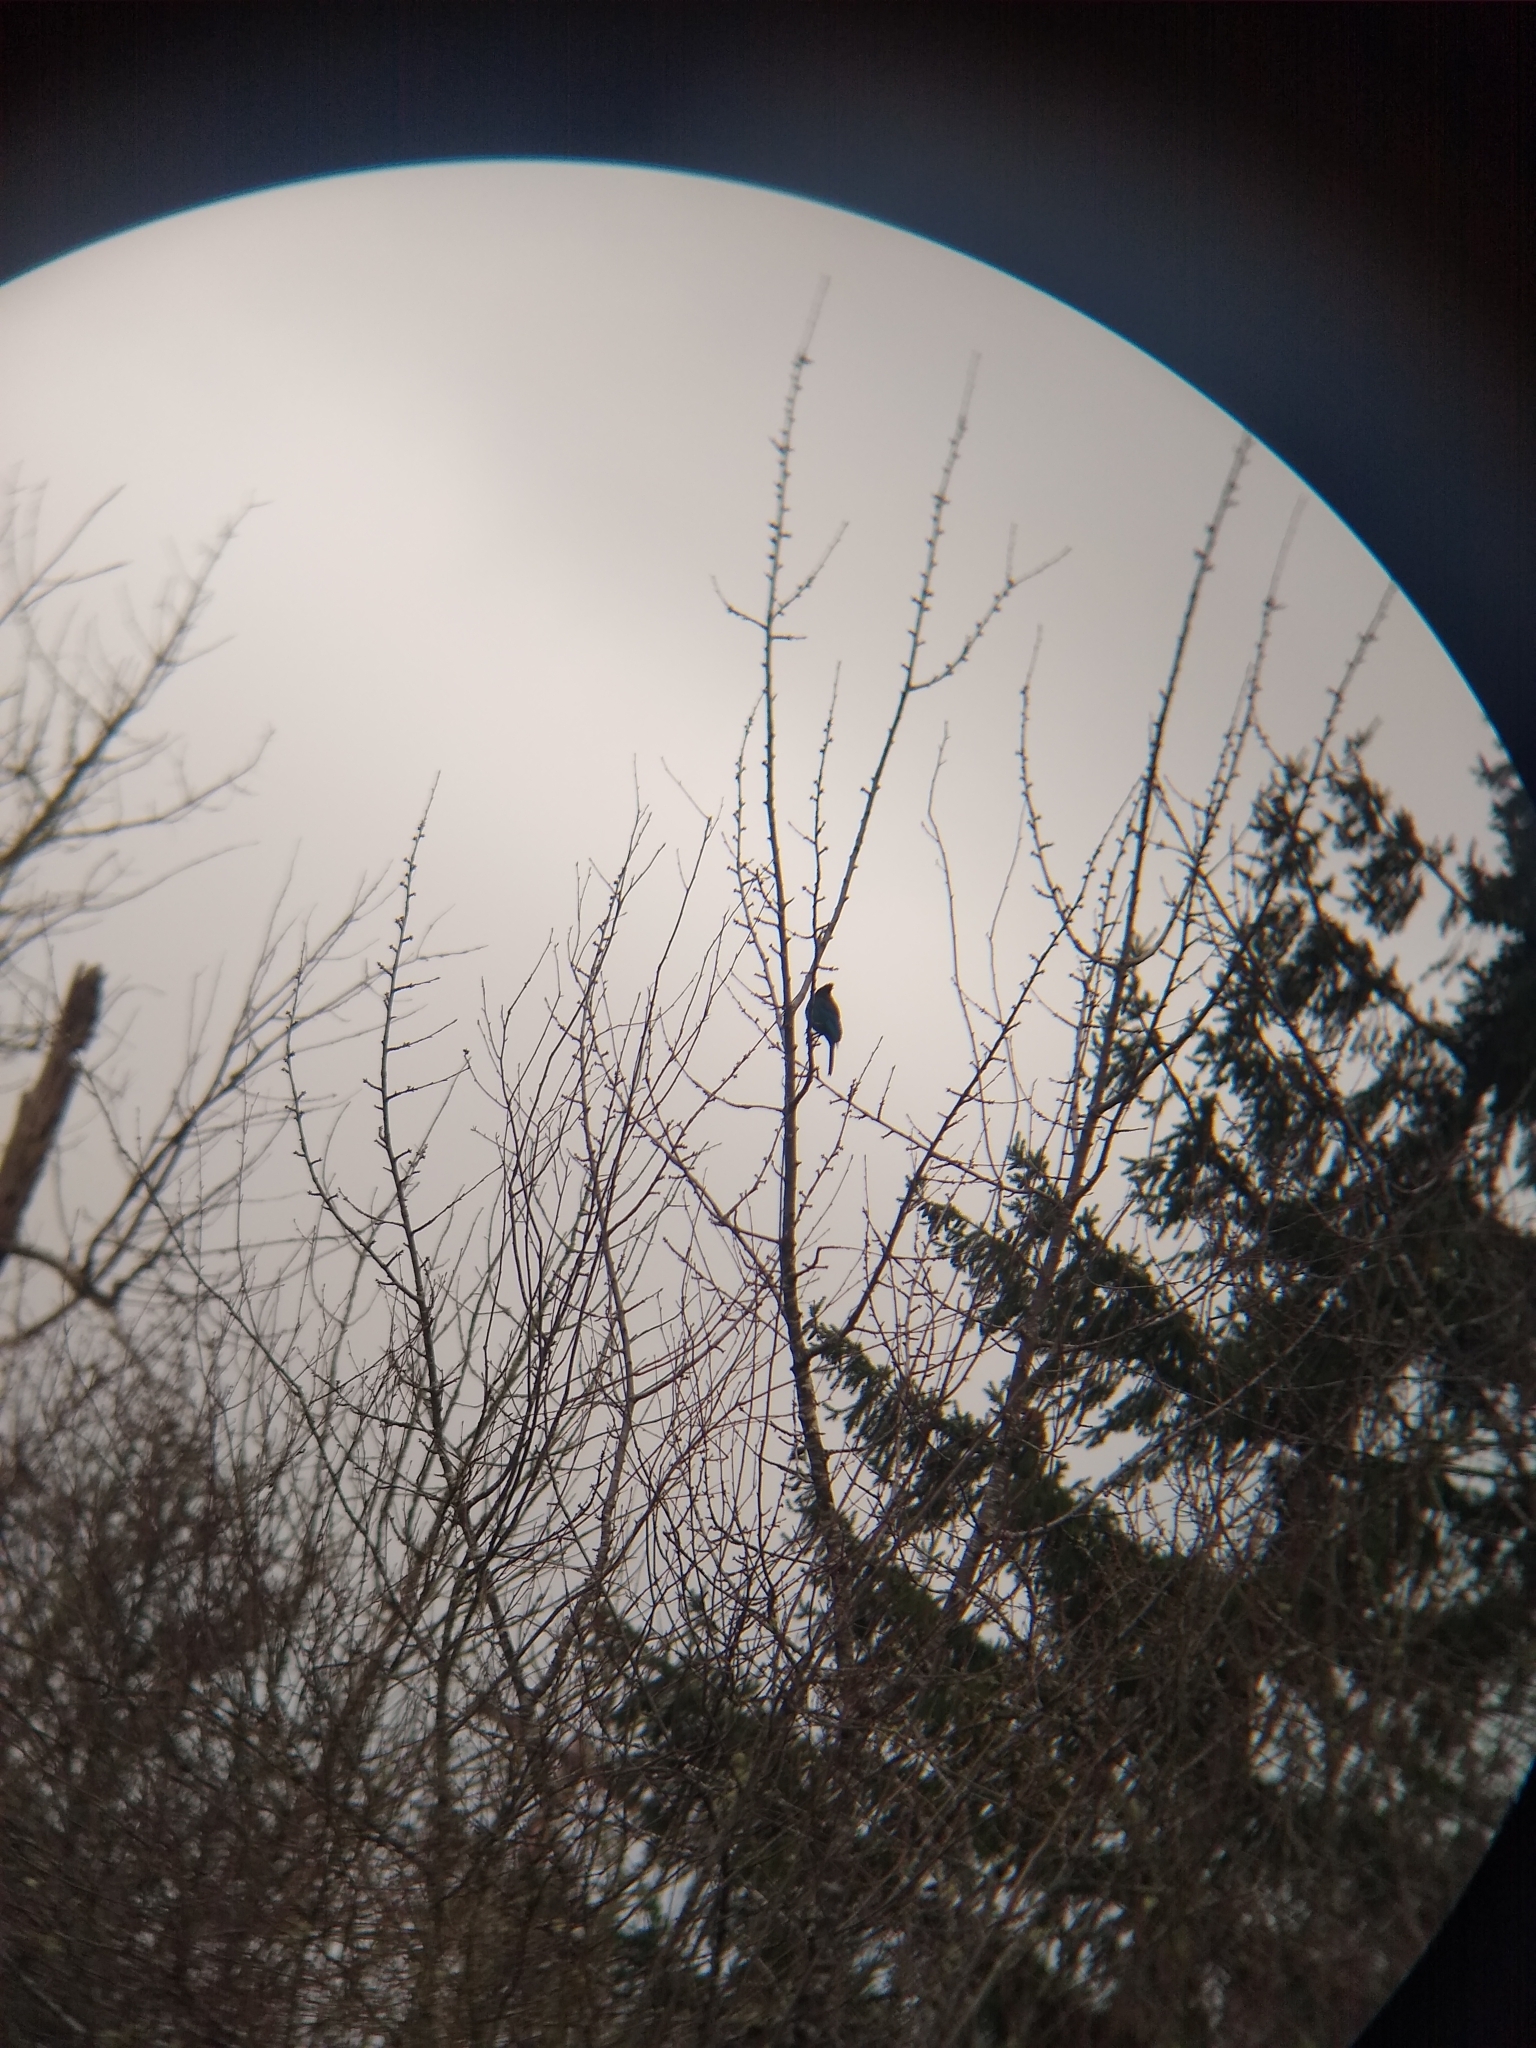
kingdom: Animalia
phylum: Chordata
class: Aves
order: Passeriformes
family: Corvidae
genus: Cyanocitta
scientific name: Cyanocitta stelleri
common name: Steller's jay
